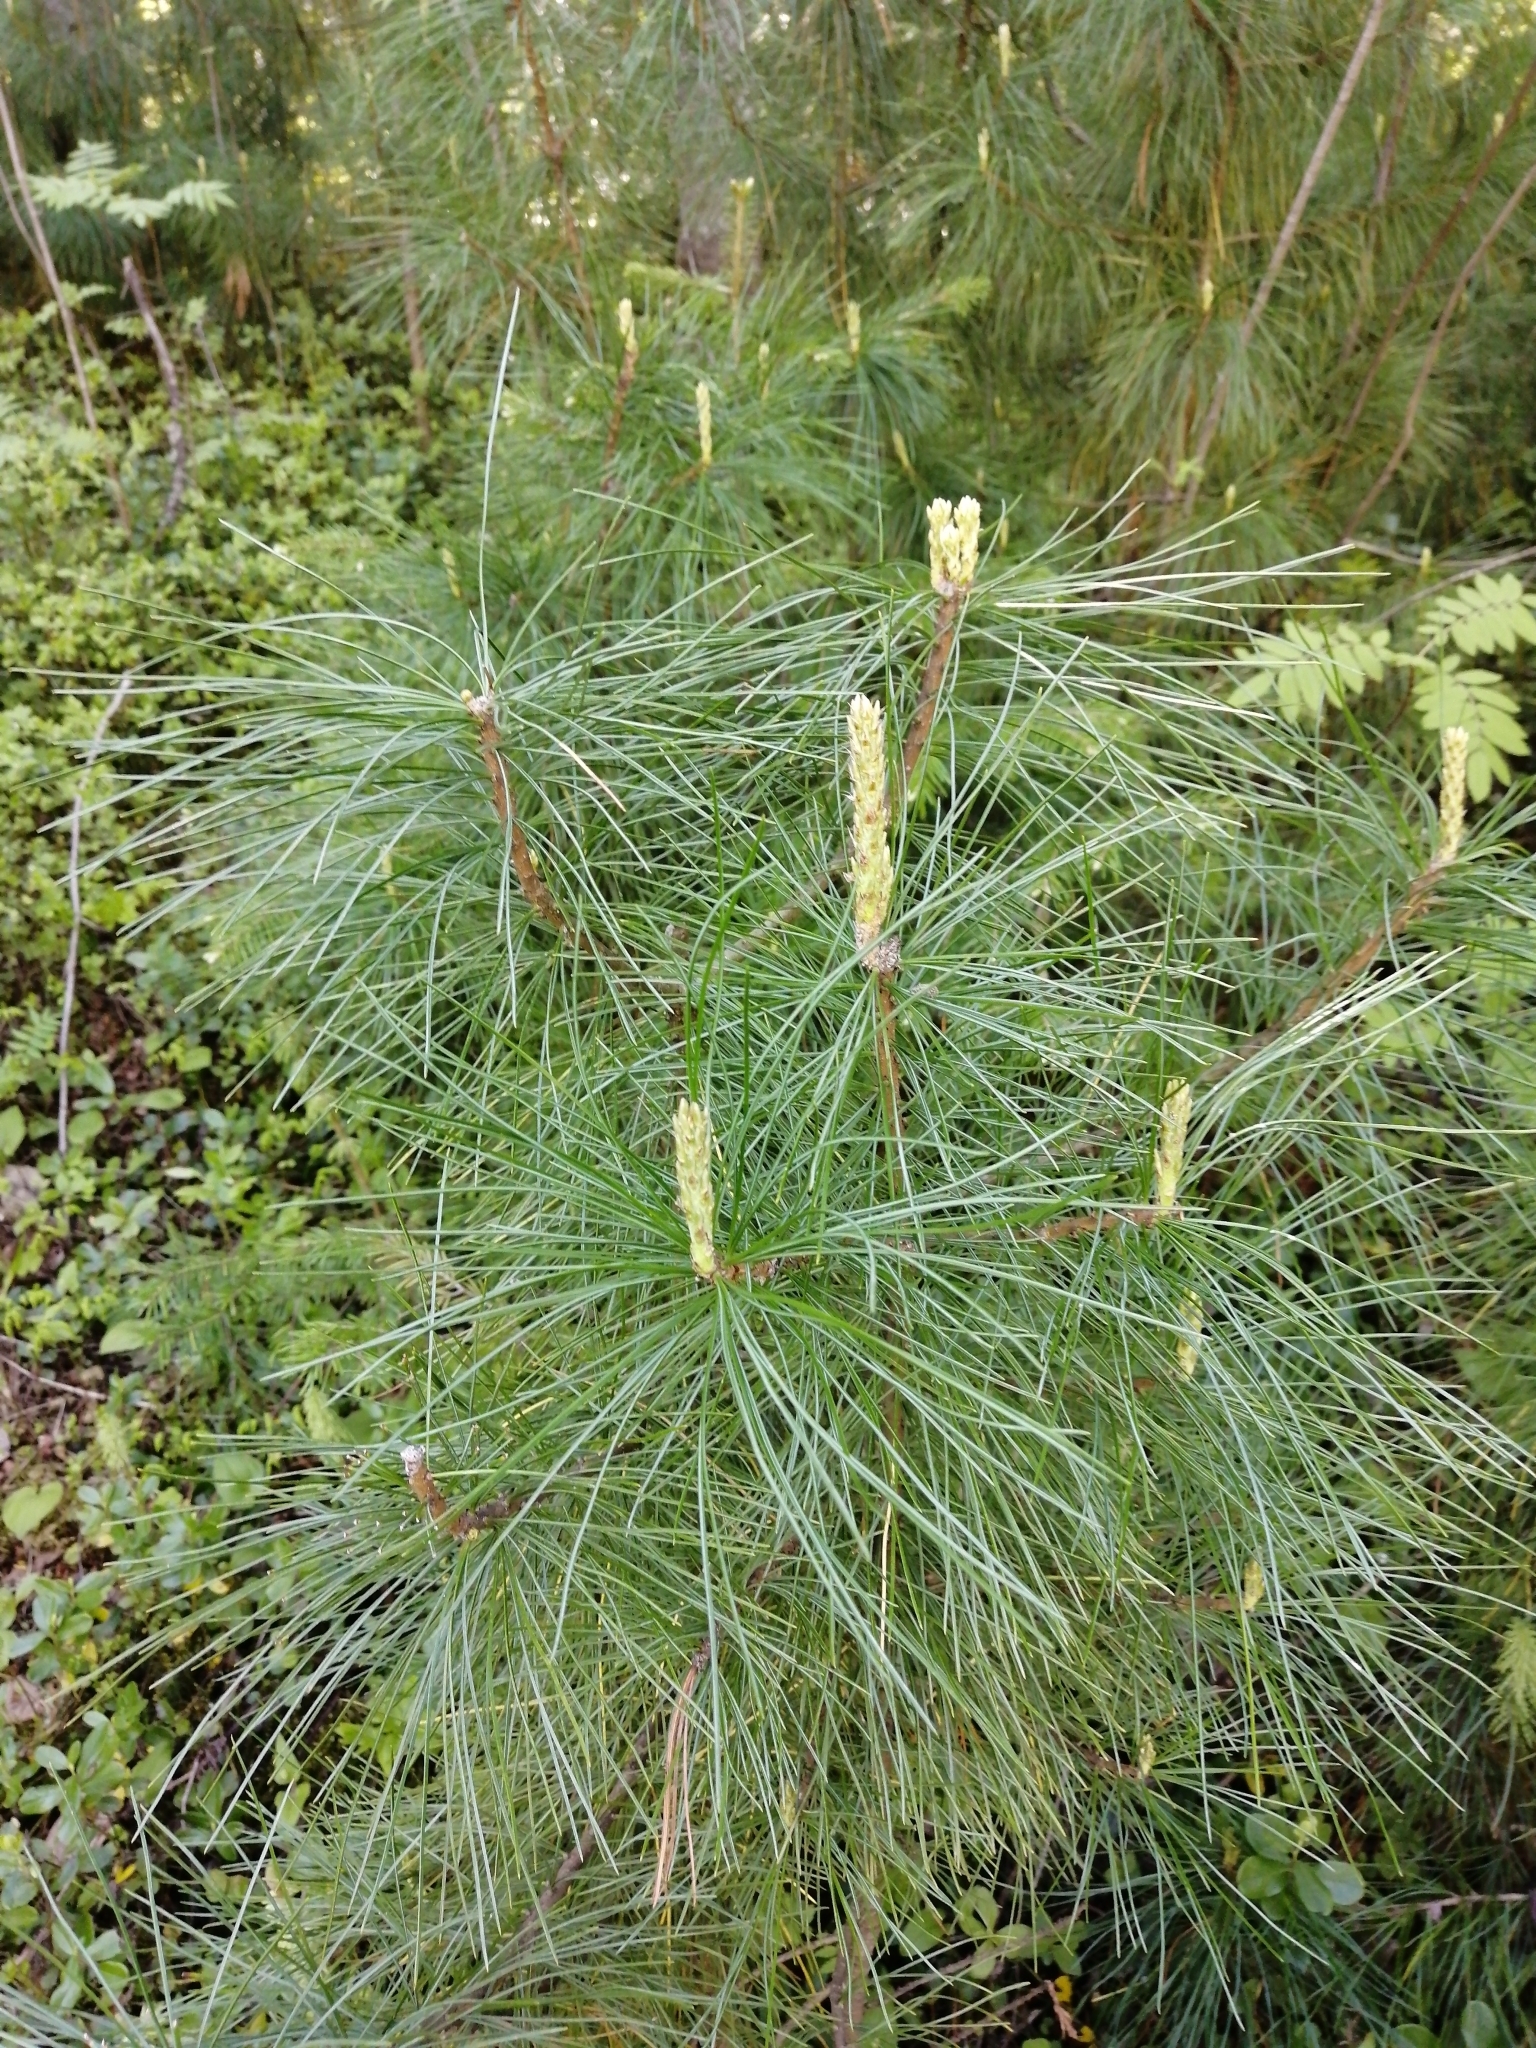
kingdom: Plantae
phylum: Tracheophyta
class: Pinopsida
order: Pinales
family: Pinaceae
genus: Pinus
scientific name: Pinus sibirica
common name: Siberian pine
